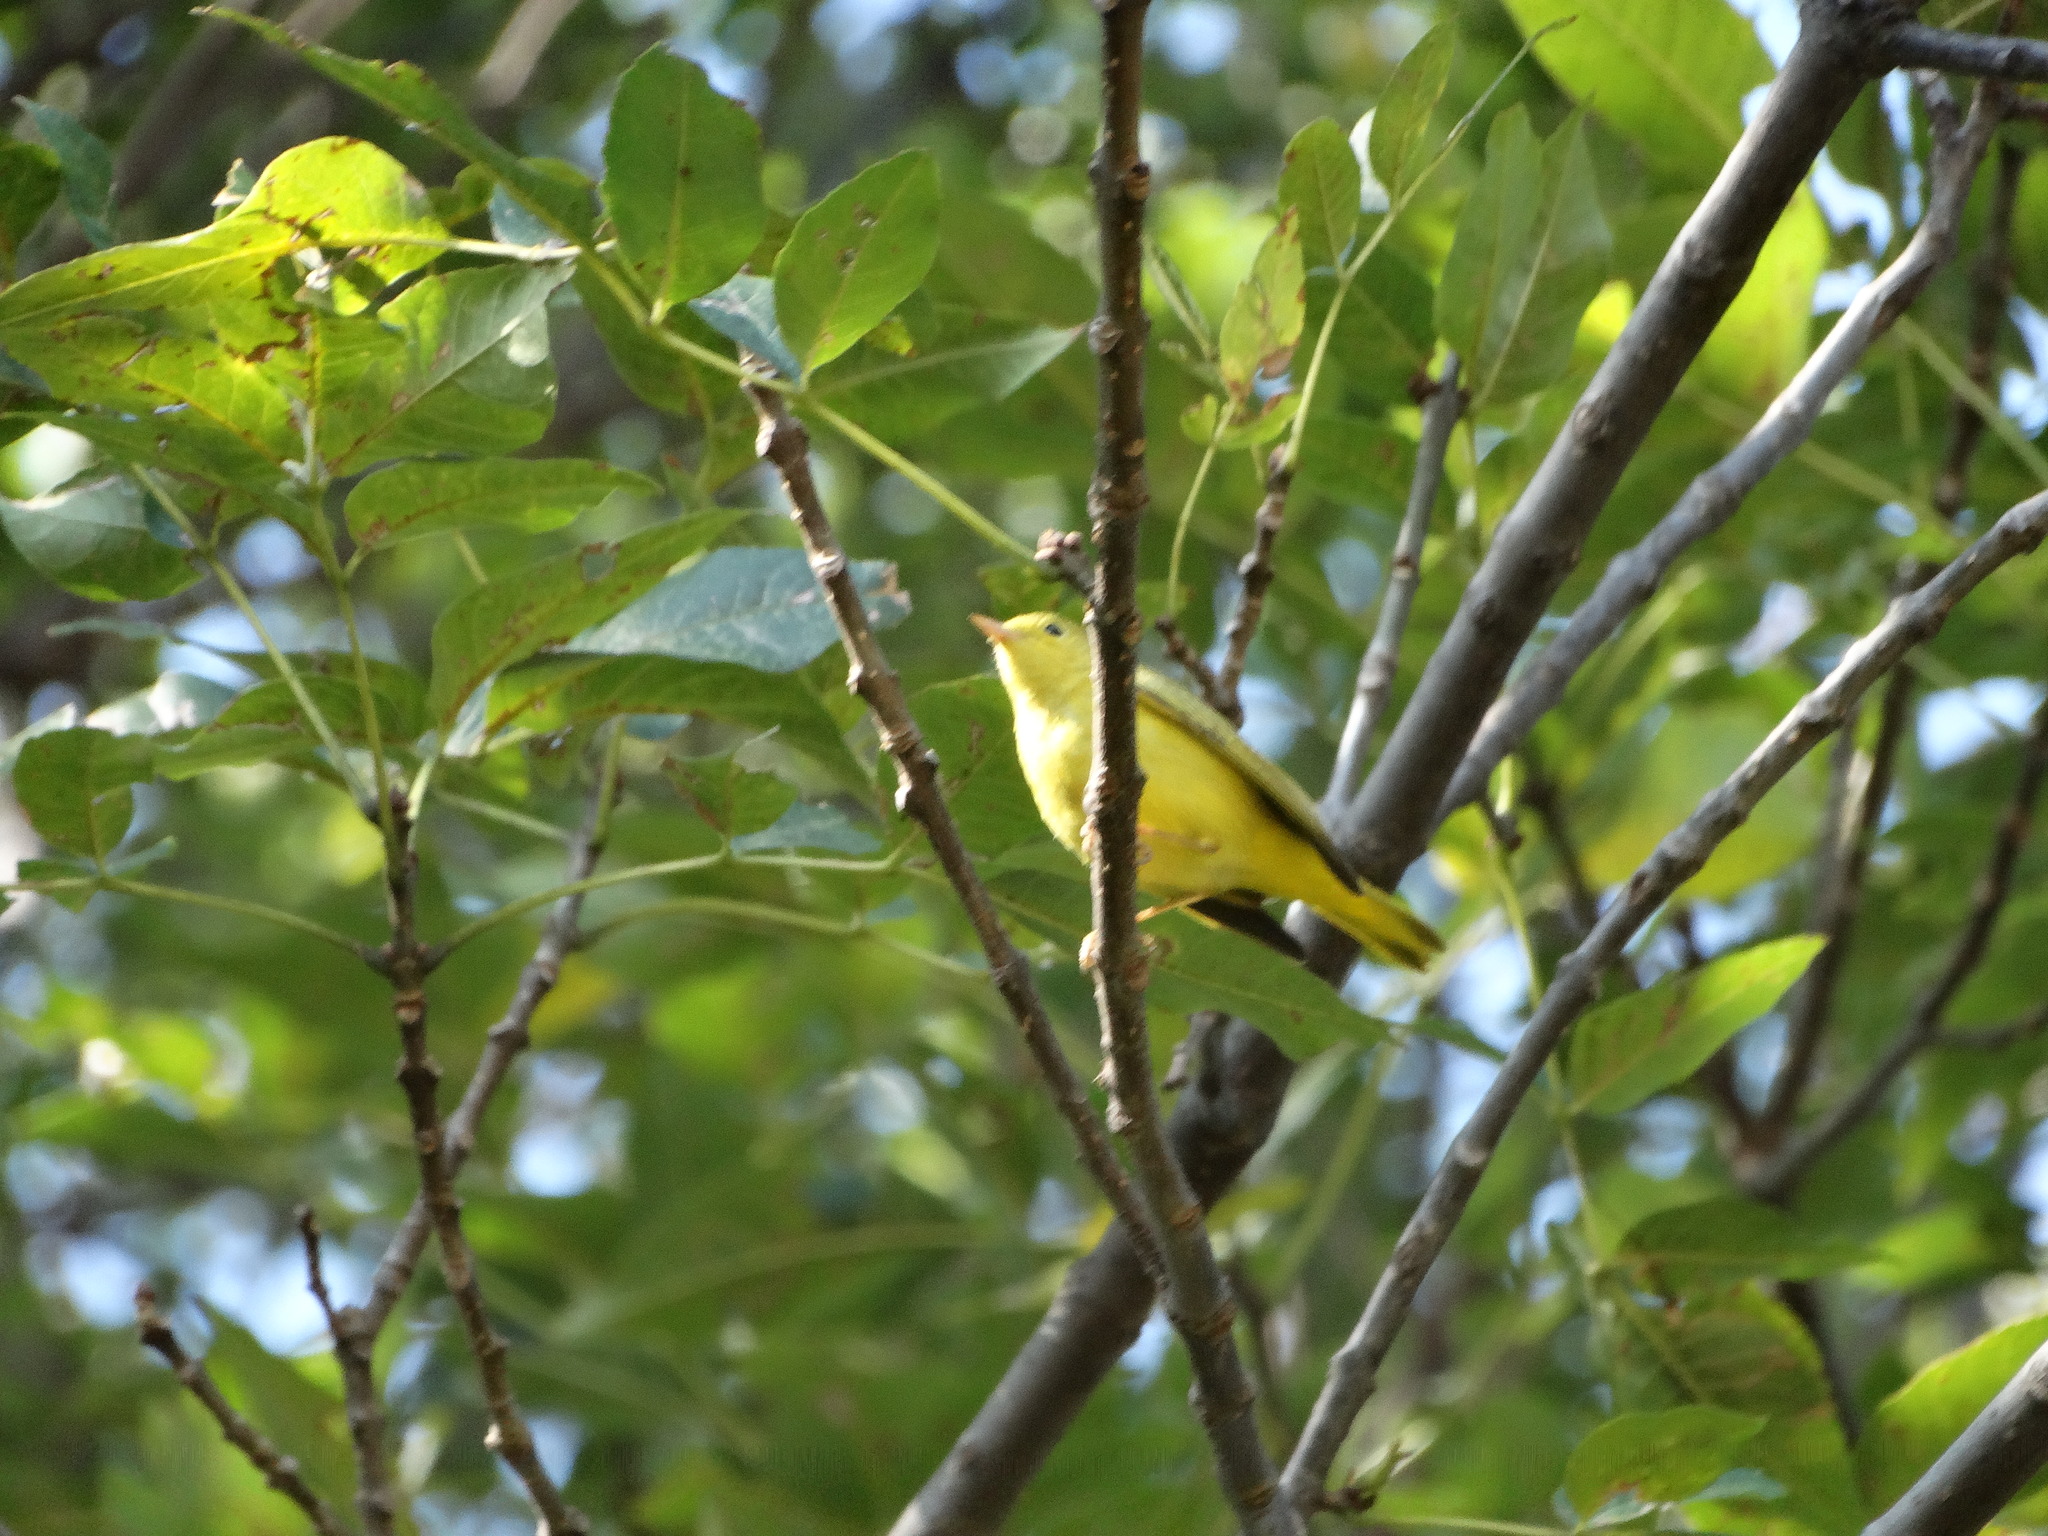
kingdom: Animalia
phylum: Chordata
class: Aves
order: Passeriformes
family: Parulidae
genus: Setophaga
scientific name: Setophaga petechia
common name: Yellow warbler
